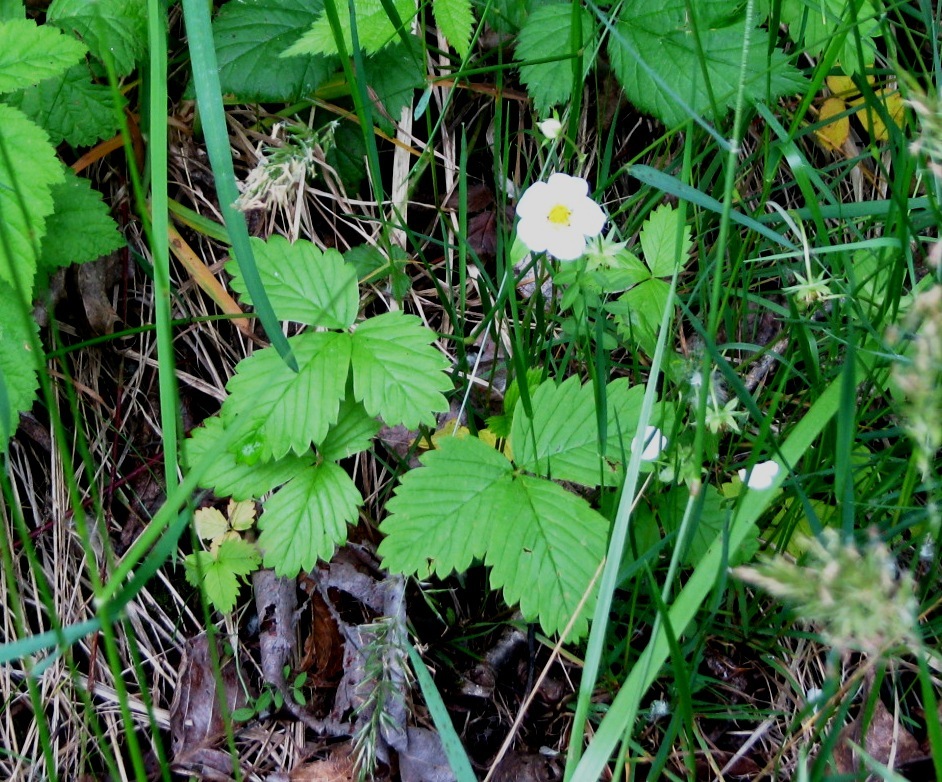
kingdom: Plantae
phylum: Tracheophyta
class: Magnoliopsida
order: Rosales
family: Rosaceae
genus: Fragaria
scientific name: Fragaria vesca
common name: Wild strawberry
